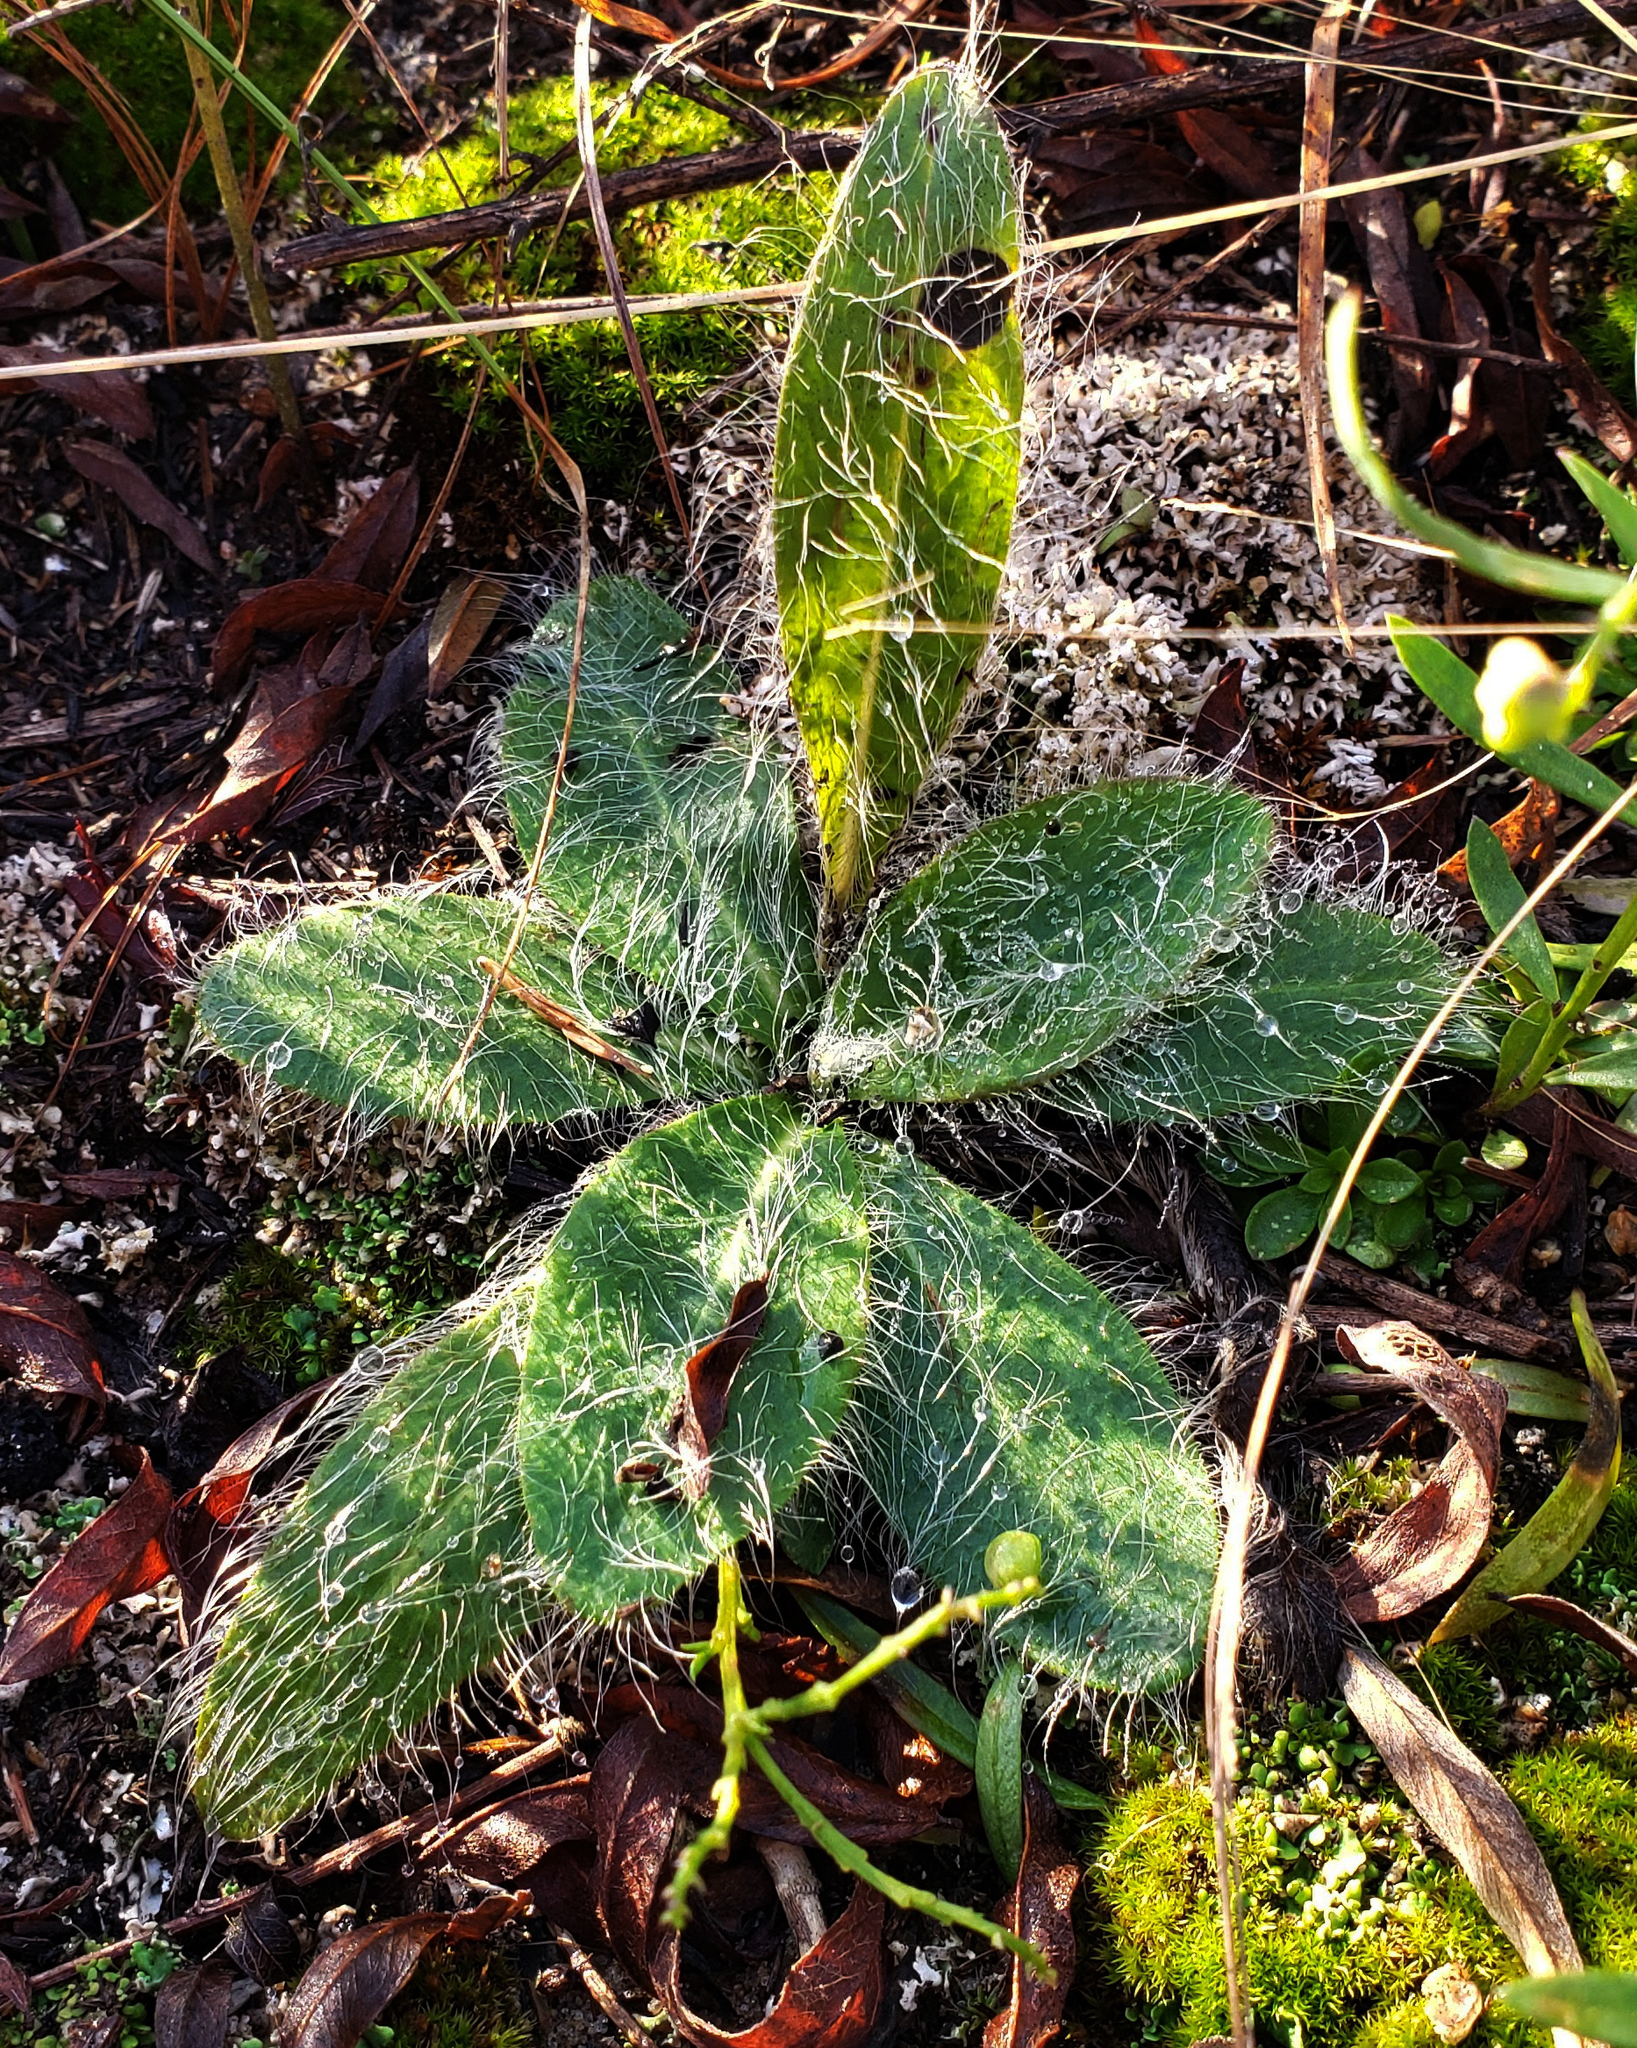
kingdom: Plantae
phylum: Tracheophyta
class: Magnoliopsida
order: Asterales
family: Asteraceae
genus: Hieracium
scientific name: Hieracium longipilum
